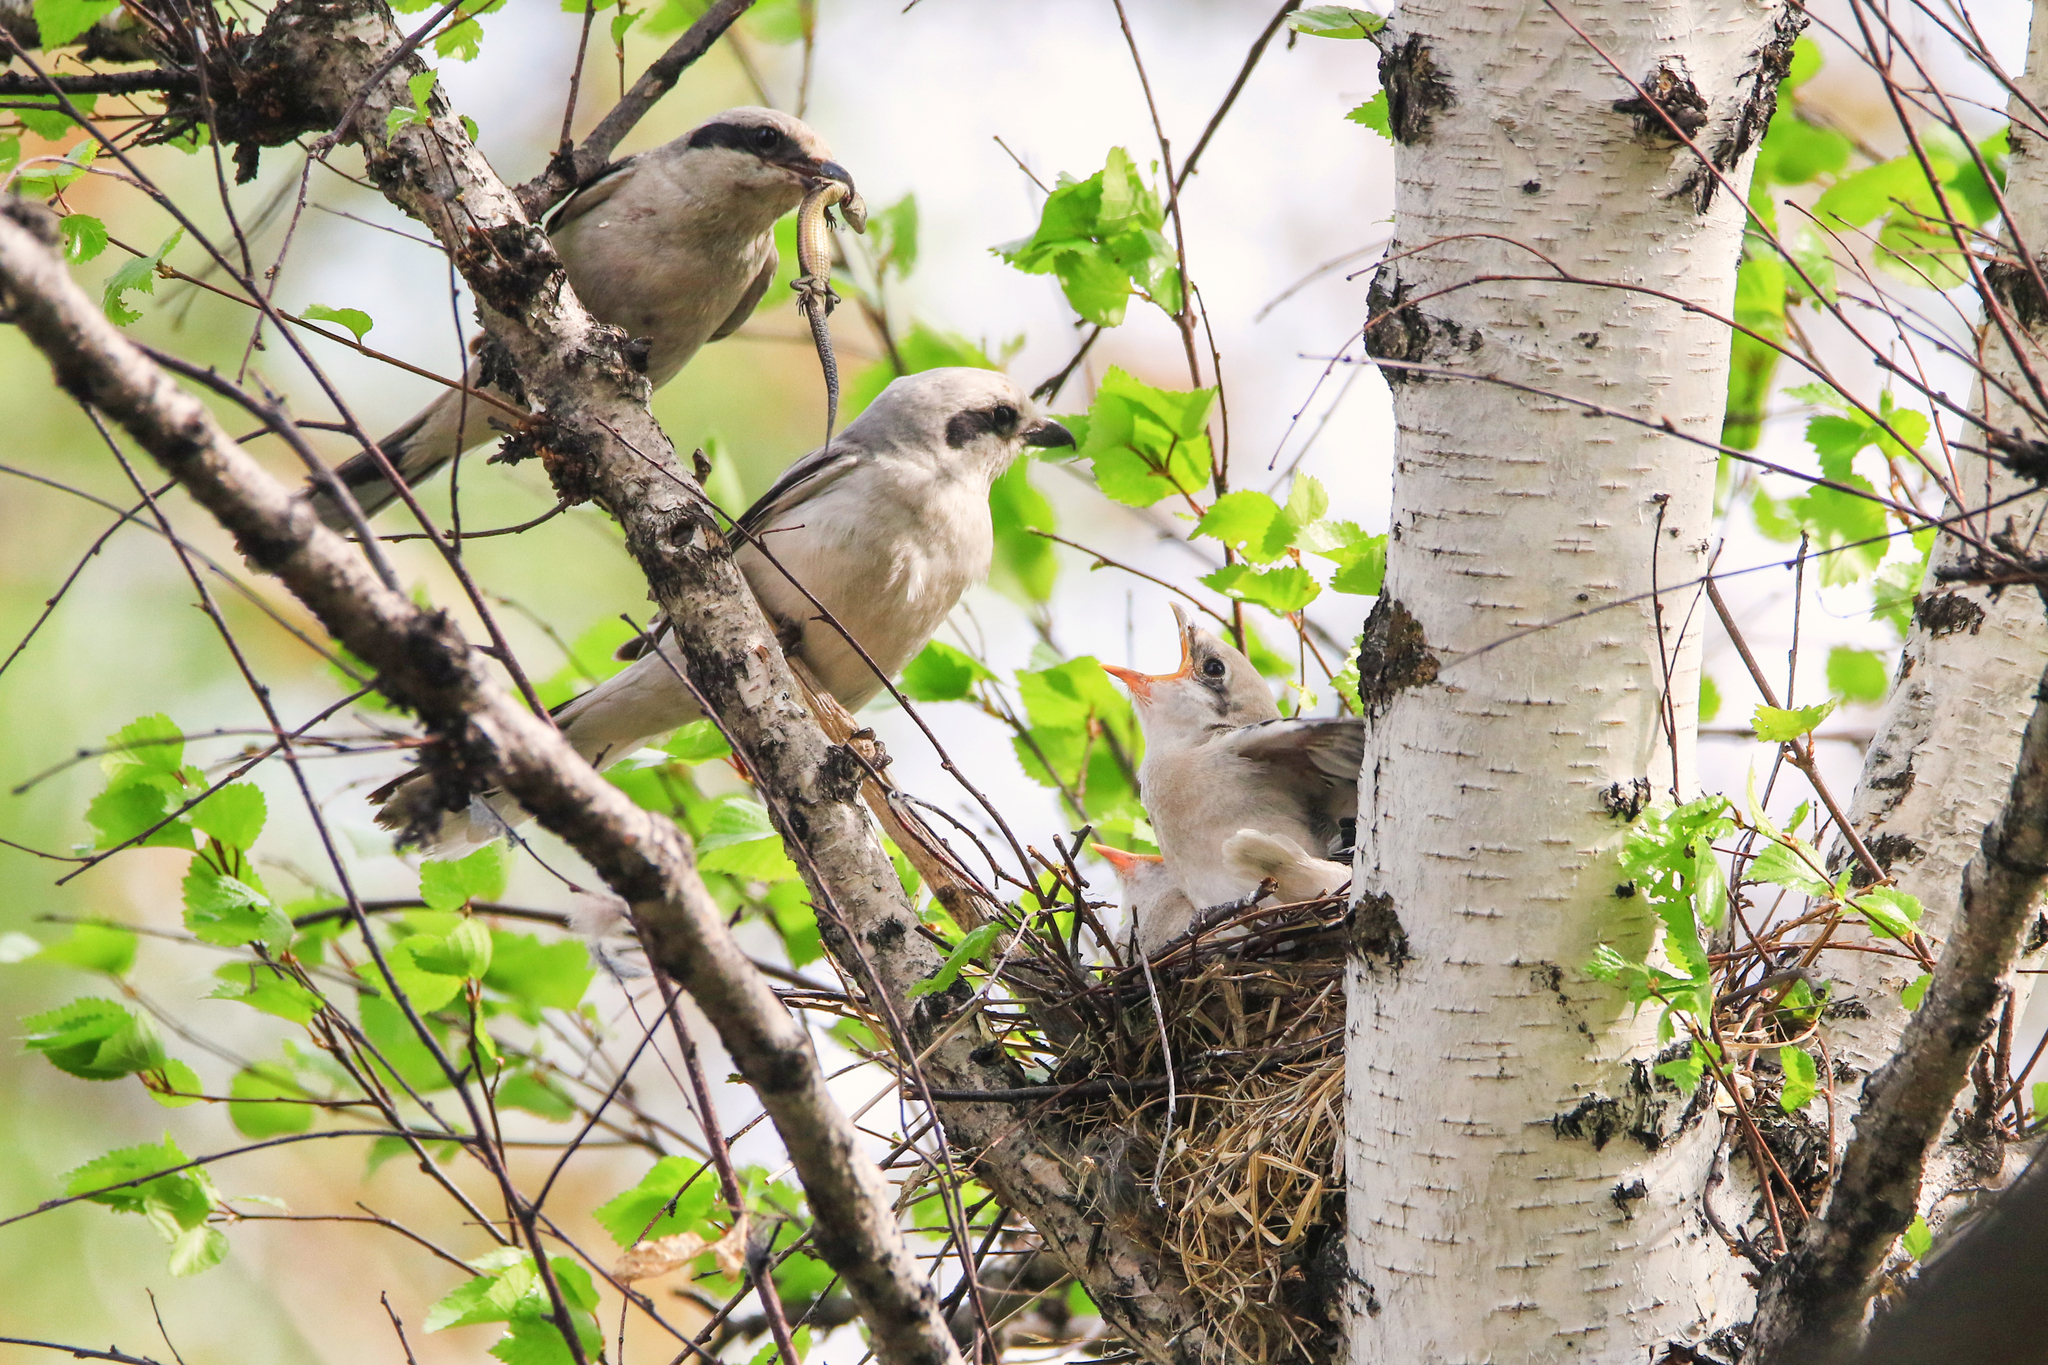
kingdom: Animalia
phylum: Chordata
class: Aves
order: Passeriformes
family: Laniidae
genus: Lanius
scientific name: Lanius excubitor
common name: Great grey shrike
